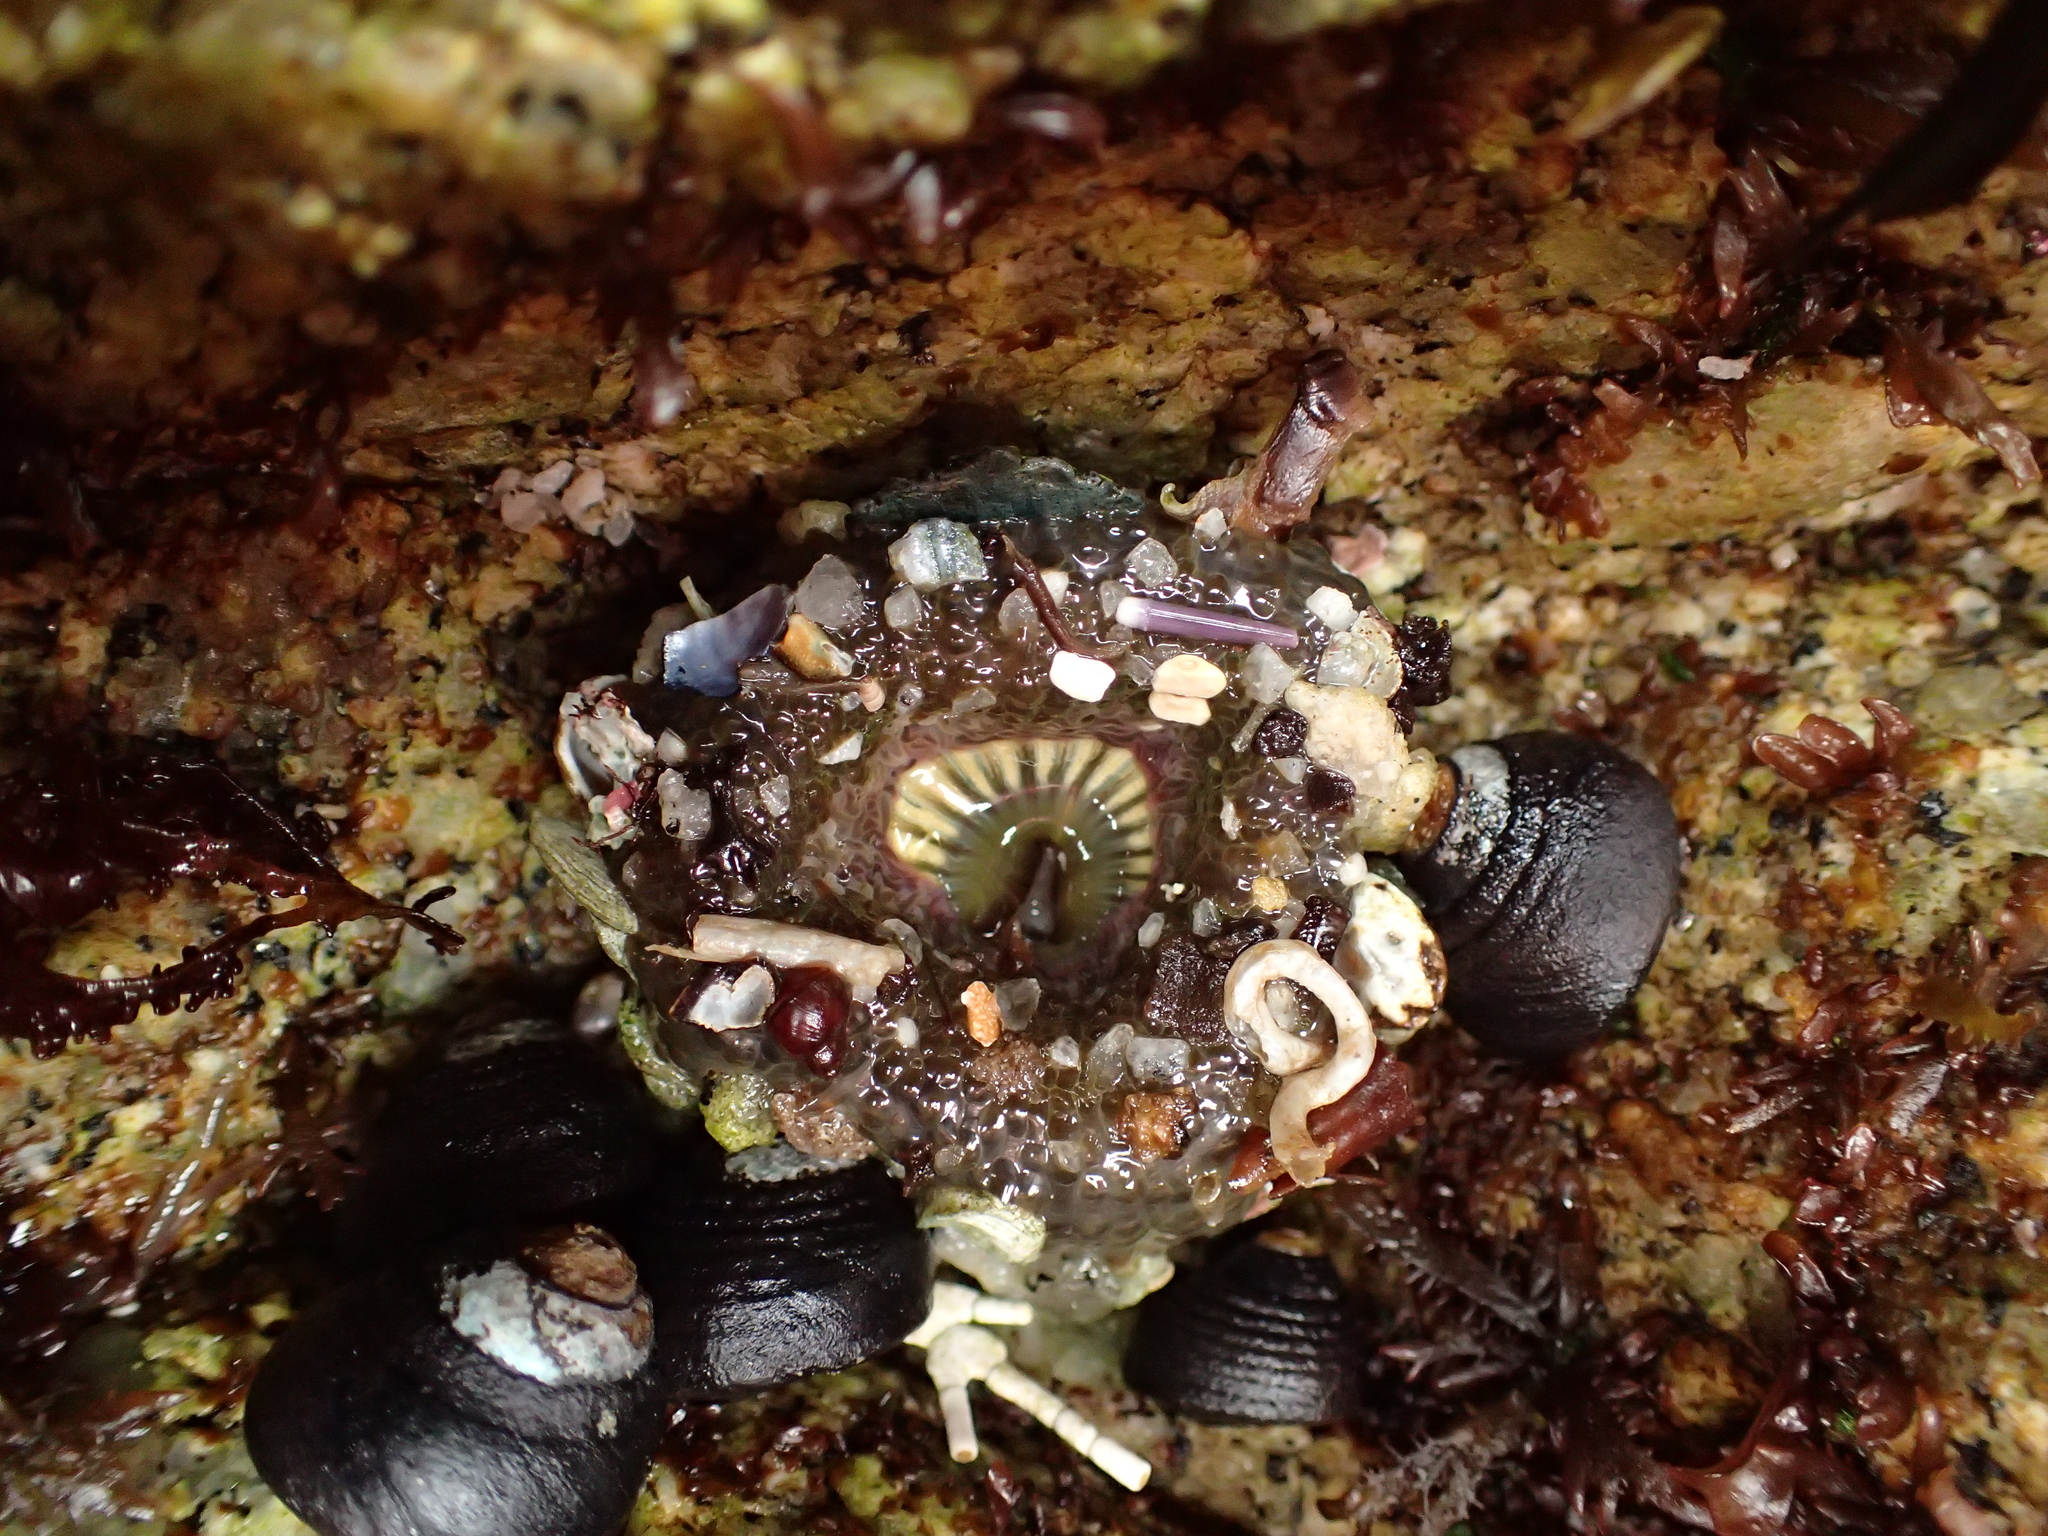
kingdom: Animalia
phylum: Cnidaria
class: Anthozoa
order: Actiniaria
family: Actiniidae
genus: Anthopleura
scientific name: Anthopleura sola
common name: Sun anemone
